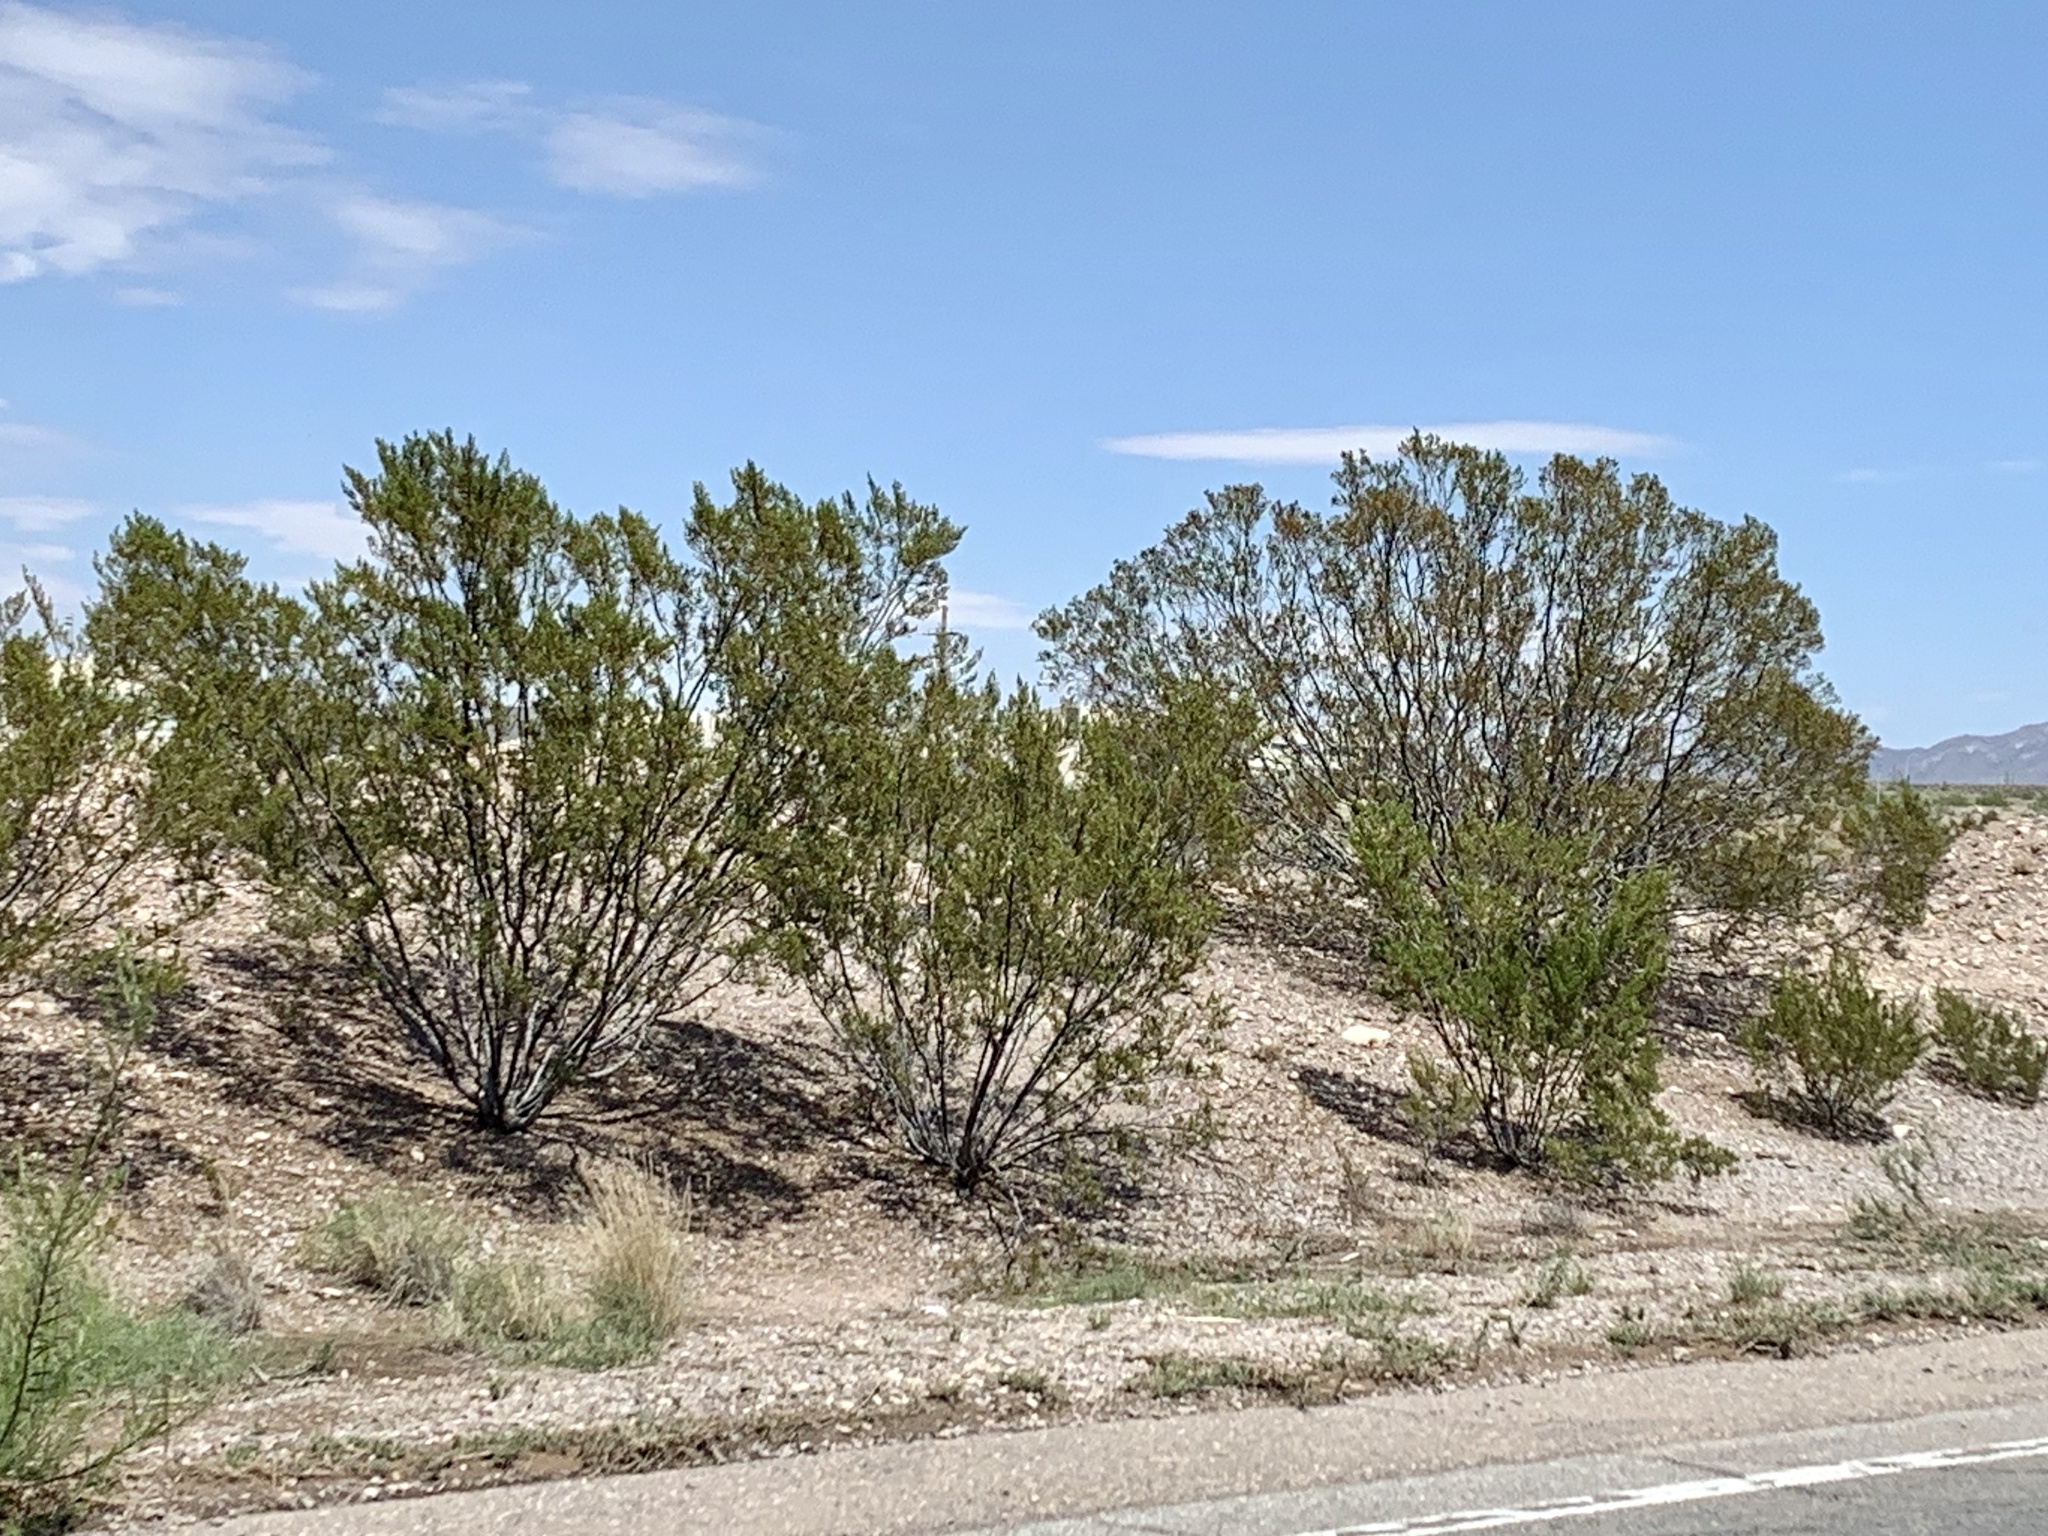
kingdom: Plantae
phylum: Tracheophyta
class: Magnoliopsida
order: Zygophyllales
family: Zygophyllaceae
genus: Larrea
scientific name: Larrea tridentata
